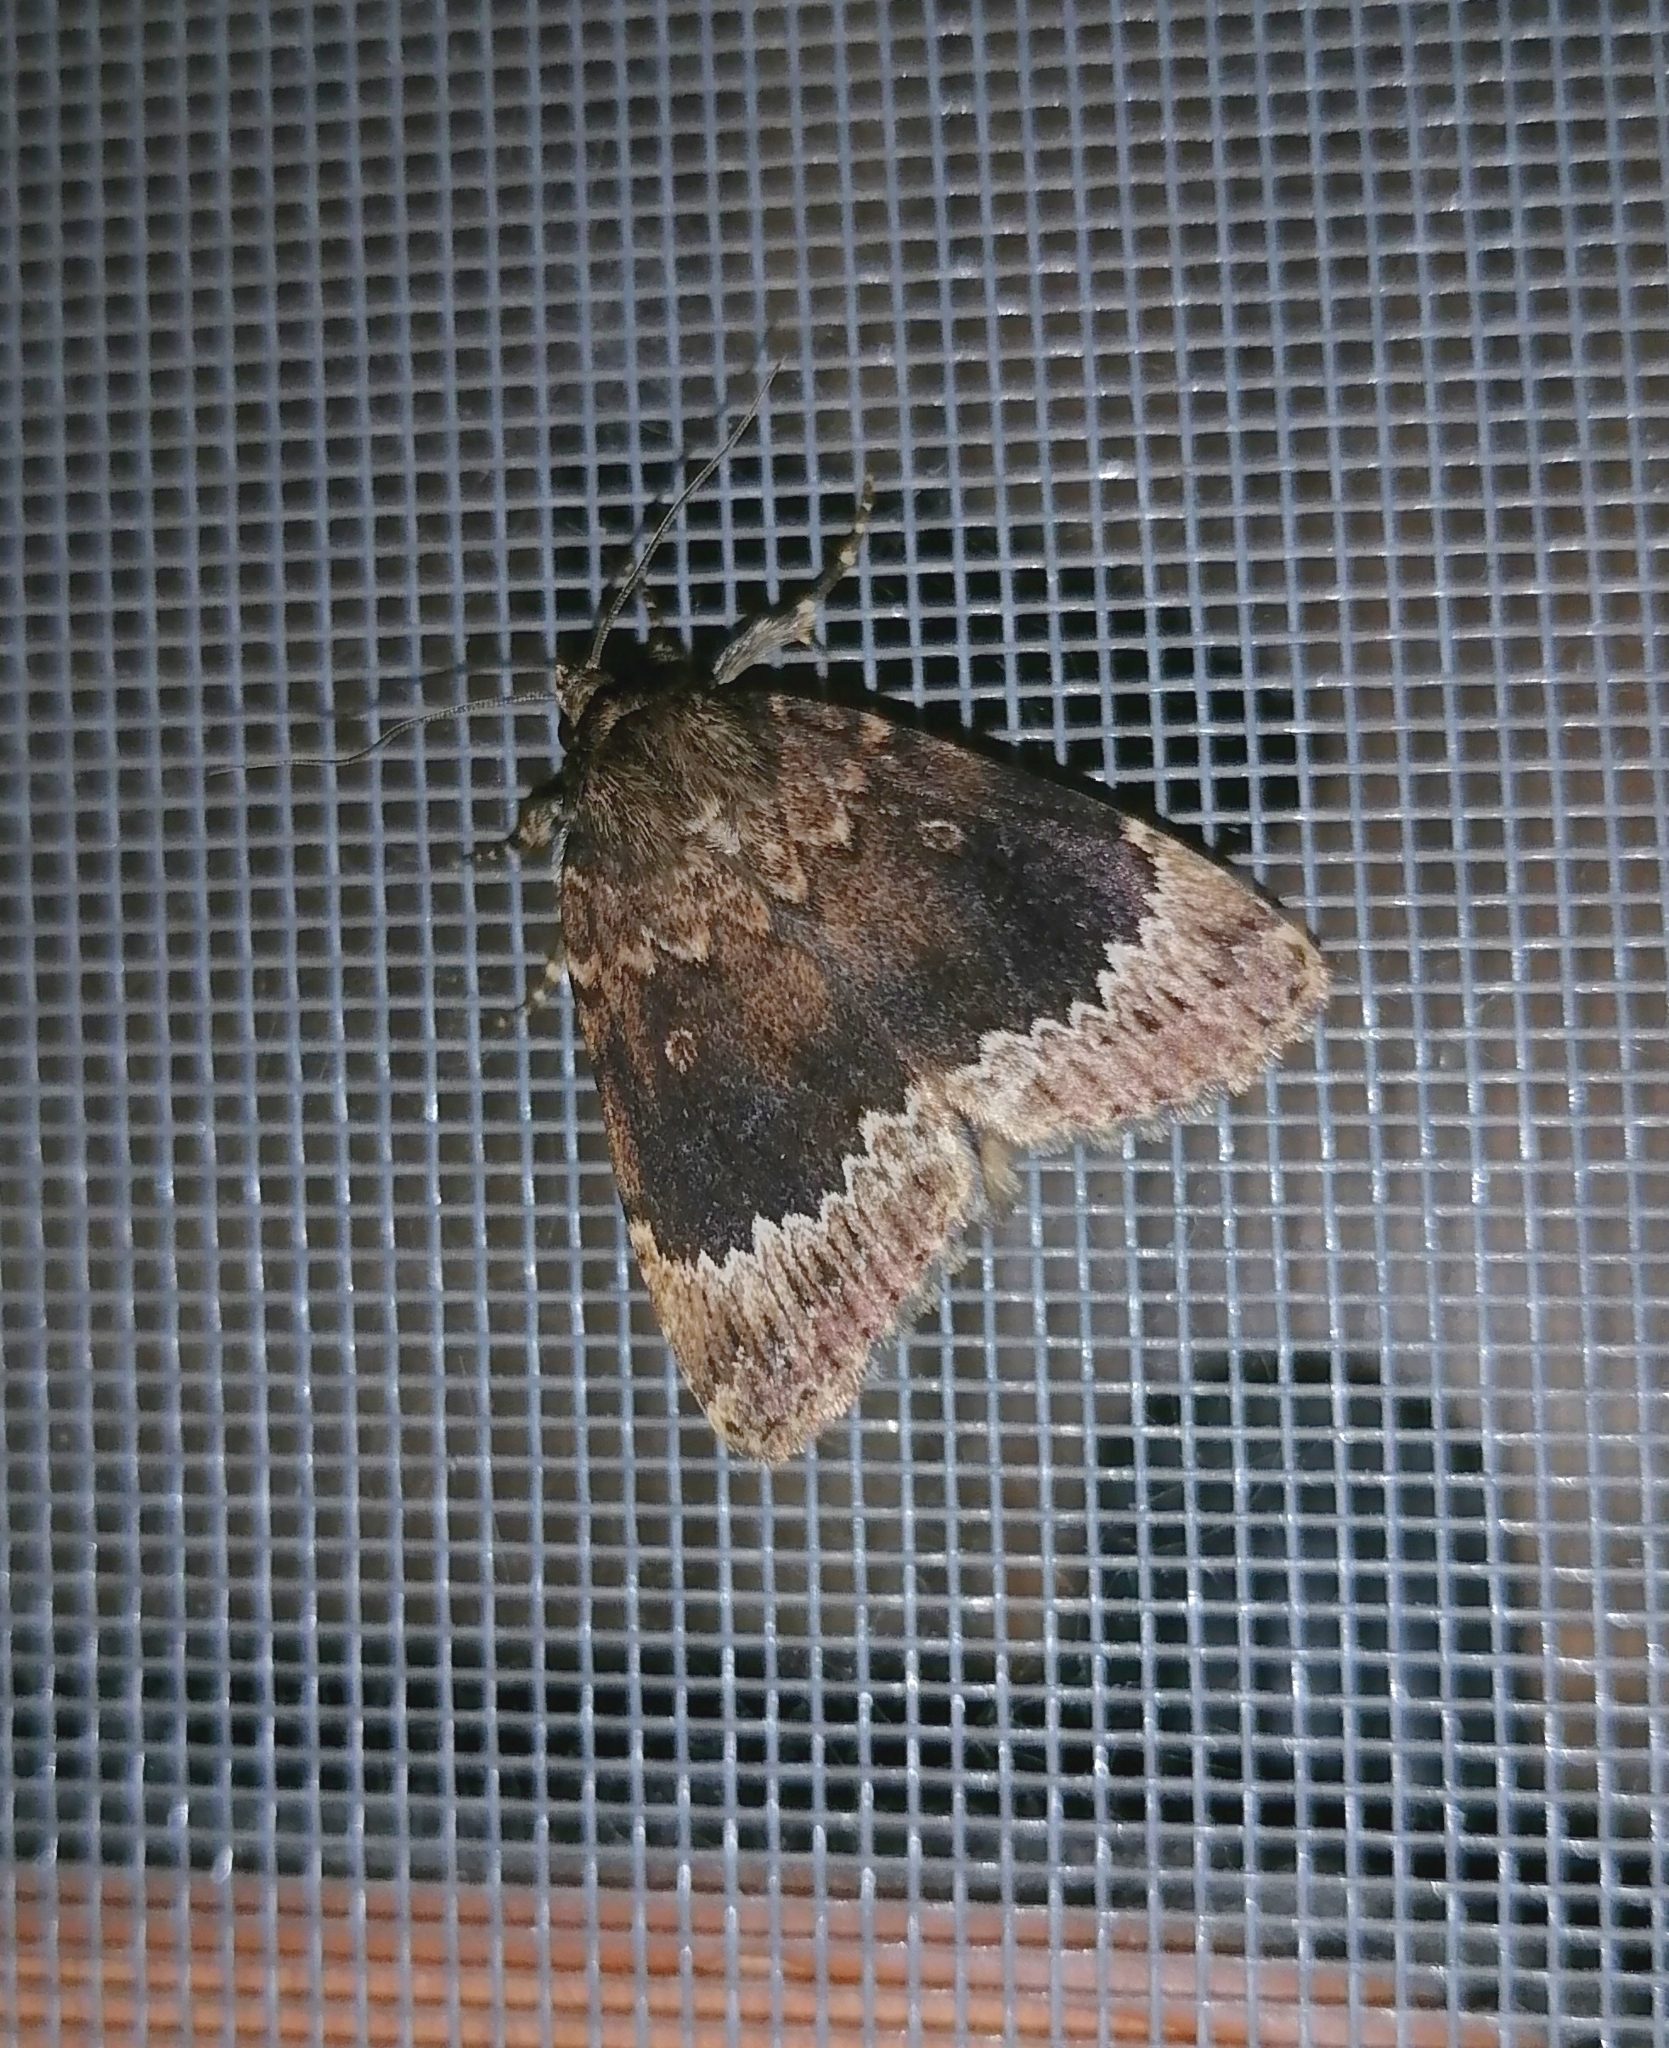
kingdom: Animalia
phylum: Arthropoda
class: Insecta
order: Lepidoptera
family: Noctuidae
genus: Amphipyra
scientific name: Amphipyra perflua
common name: Larger pale-tipped black moth
